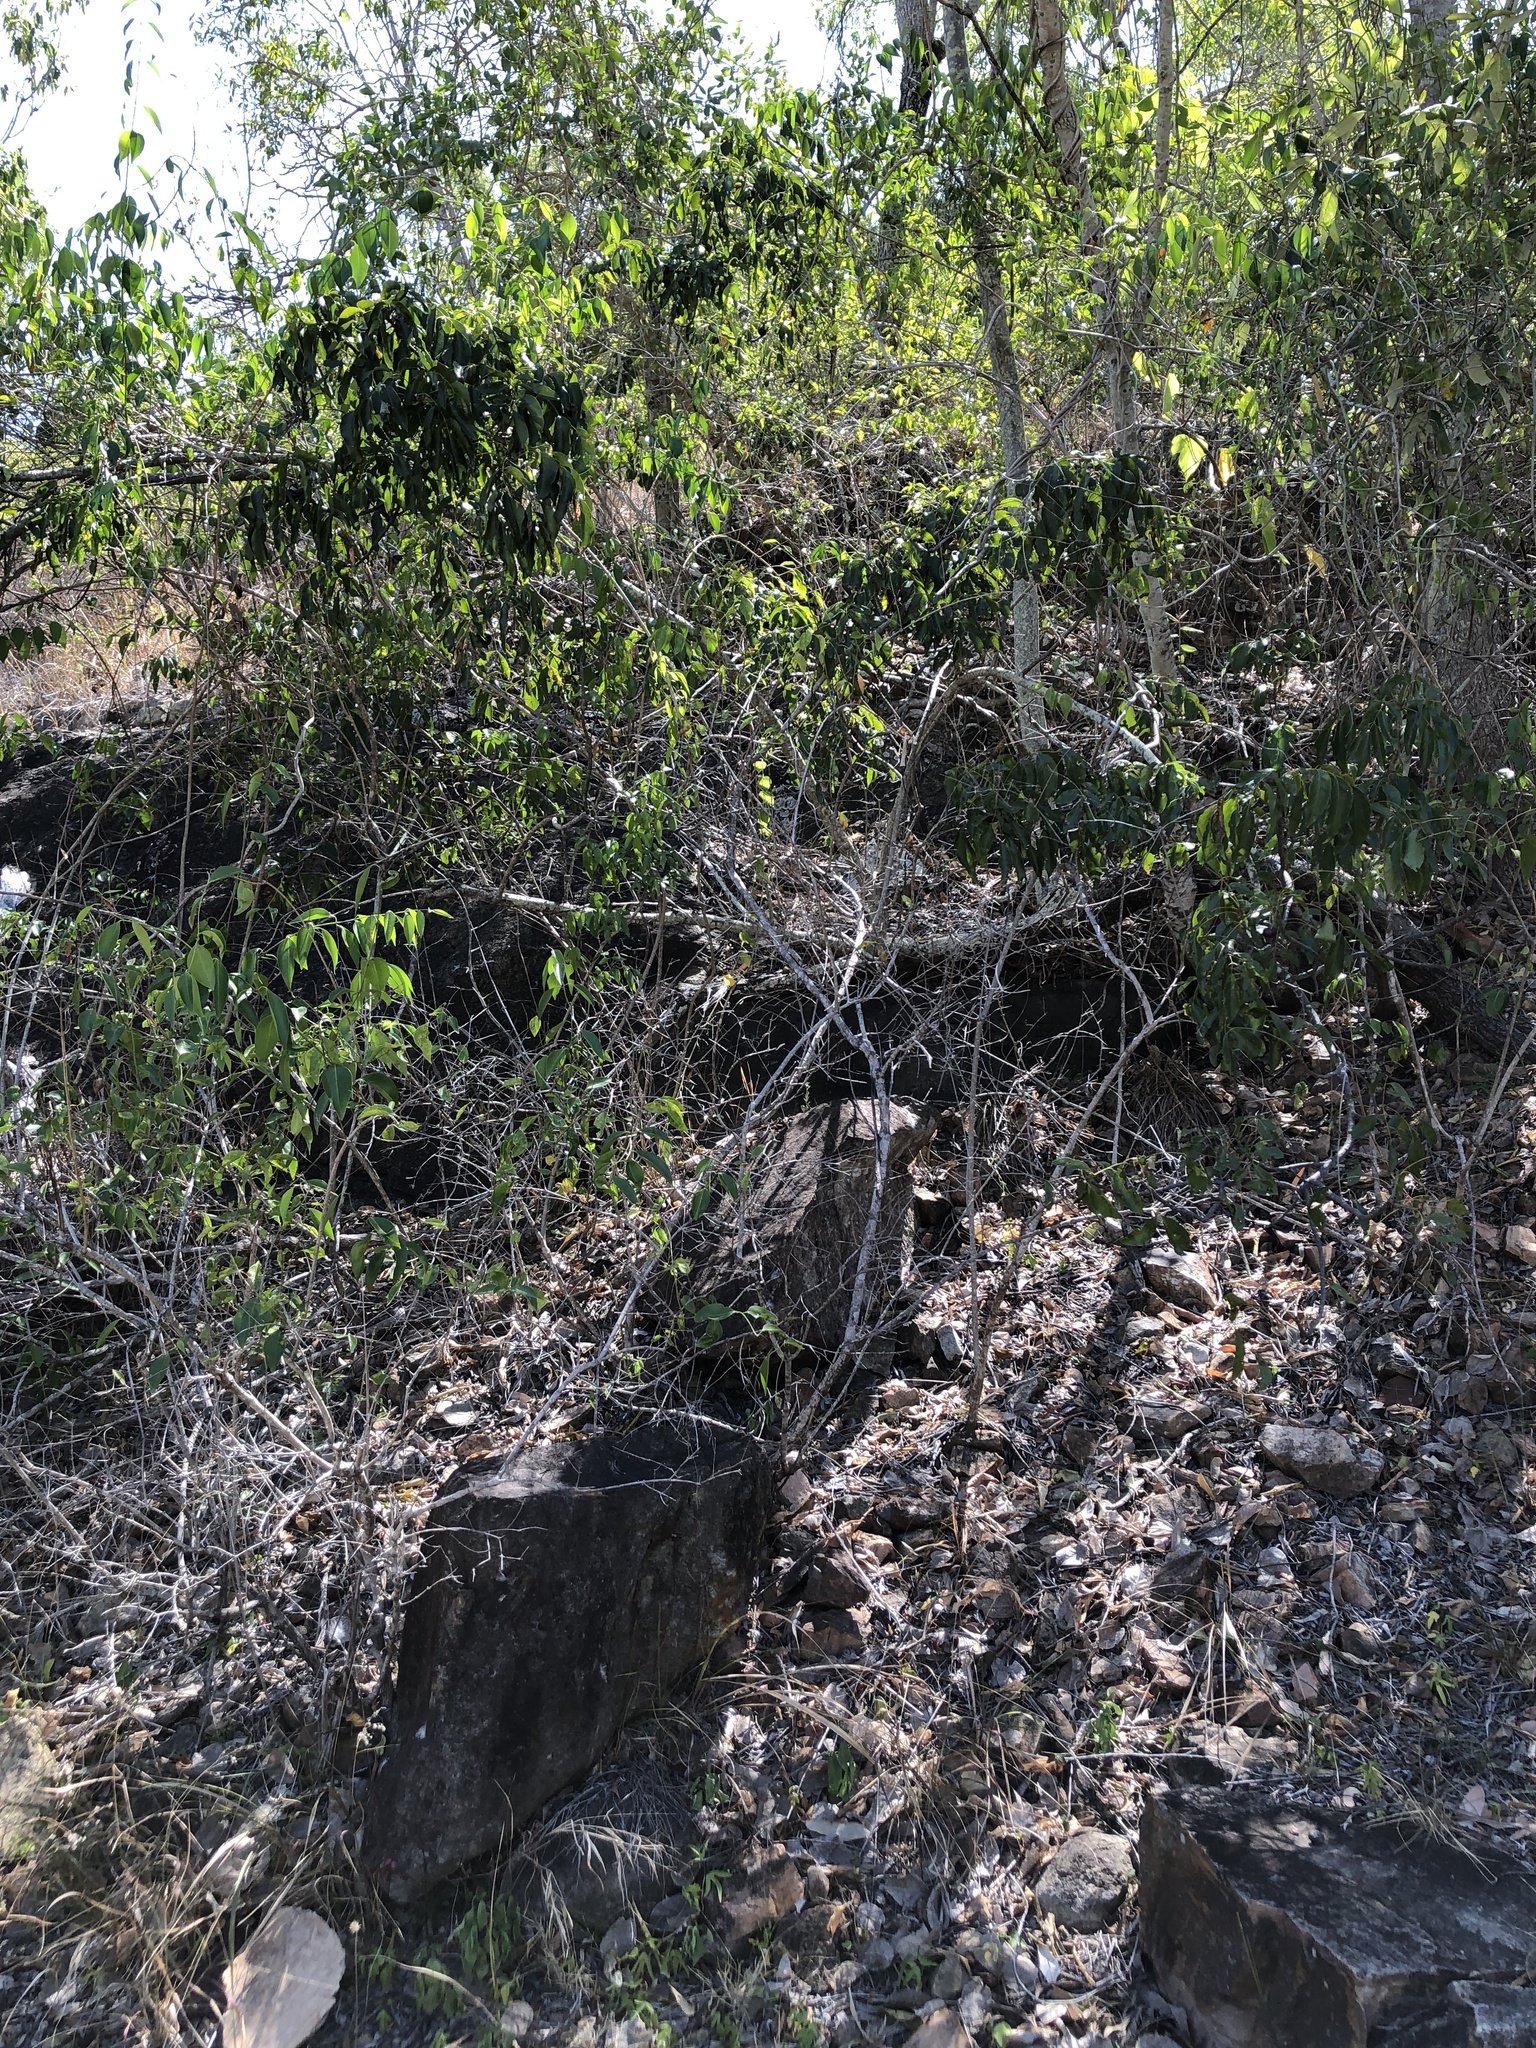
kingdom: Plantae
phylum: Tracheophyta
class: Magnoliopsida
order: Sapindales
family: Anacardiaceae
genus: Pleiogynium
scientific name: Pleiogynium timoriense
